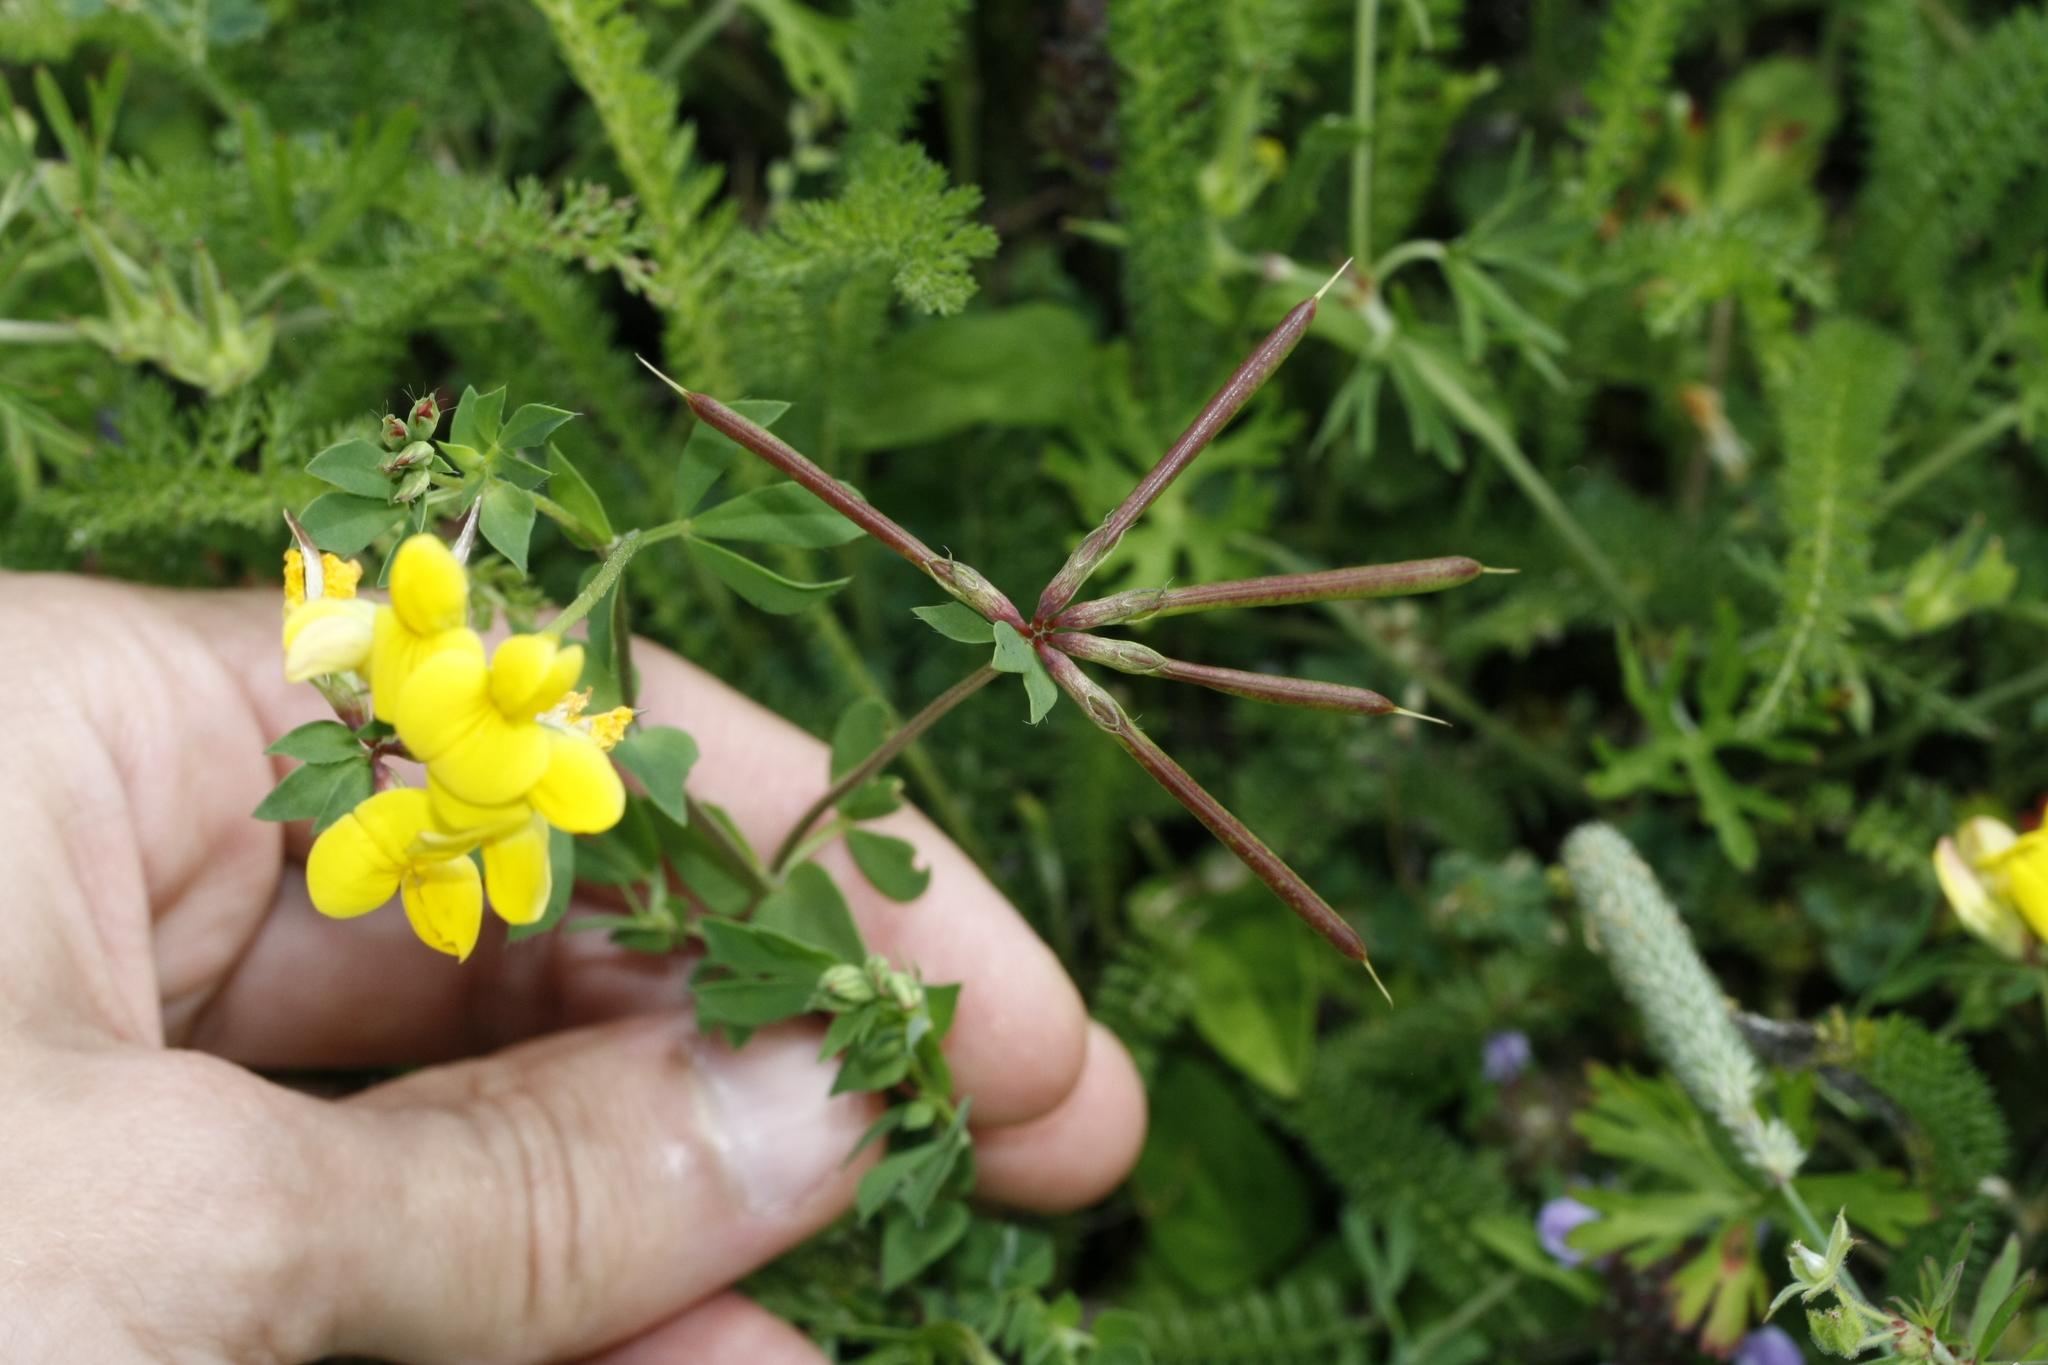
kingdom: Plantae
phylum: Tracheophyta
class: Magnoliopsida
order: Fabales
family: Fabaceae
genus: Lotus
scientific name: Lotus corniculatus
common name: Common bird's-foot-trefoil
